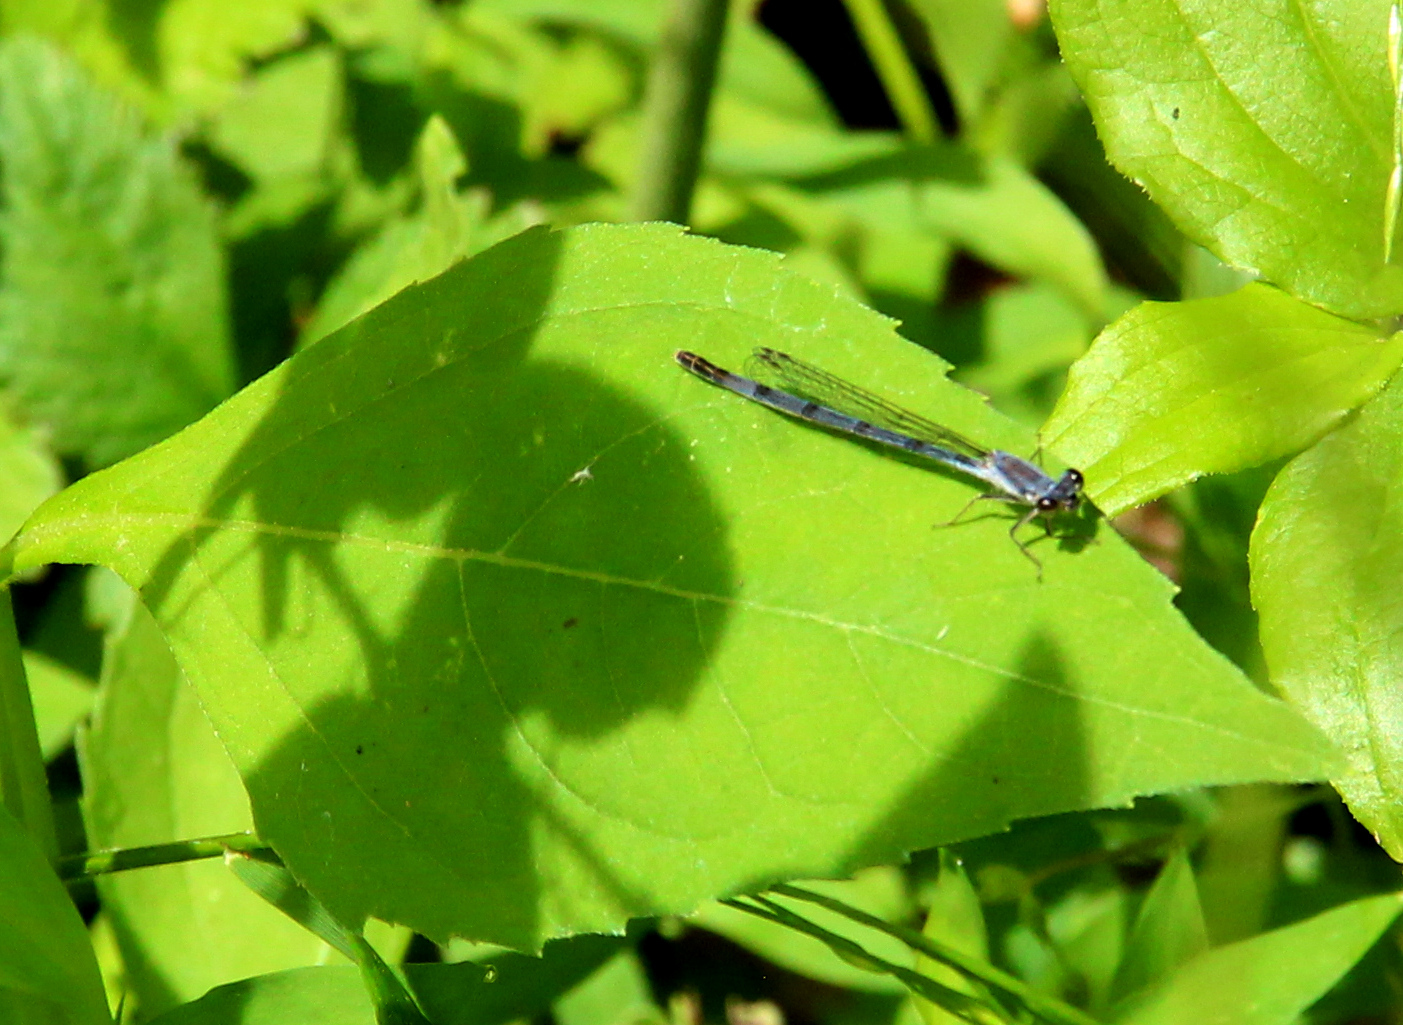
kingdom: Animalia
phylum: Arthropoda
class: Insecta
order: Odonata
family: Coenagrionidae
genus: Ischnura
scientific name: Ischnura posita
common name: Fragile forktail
